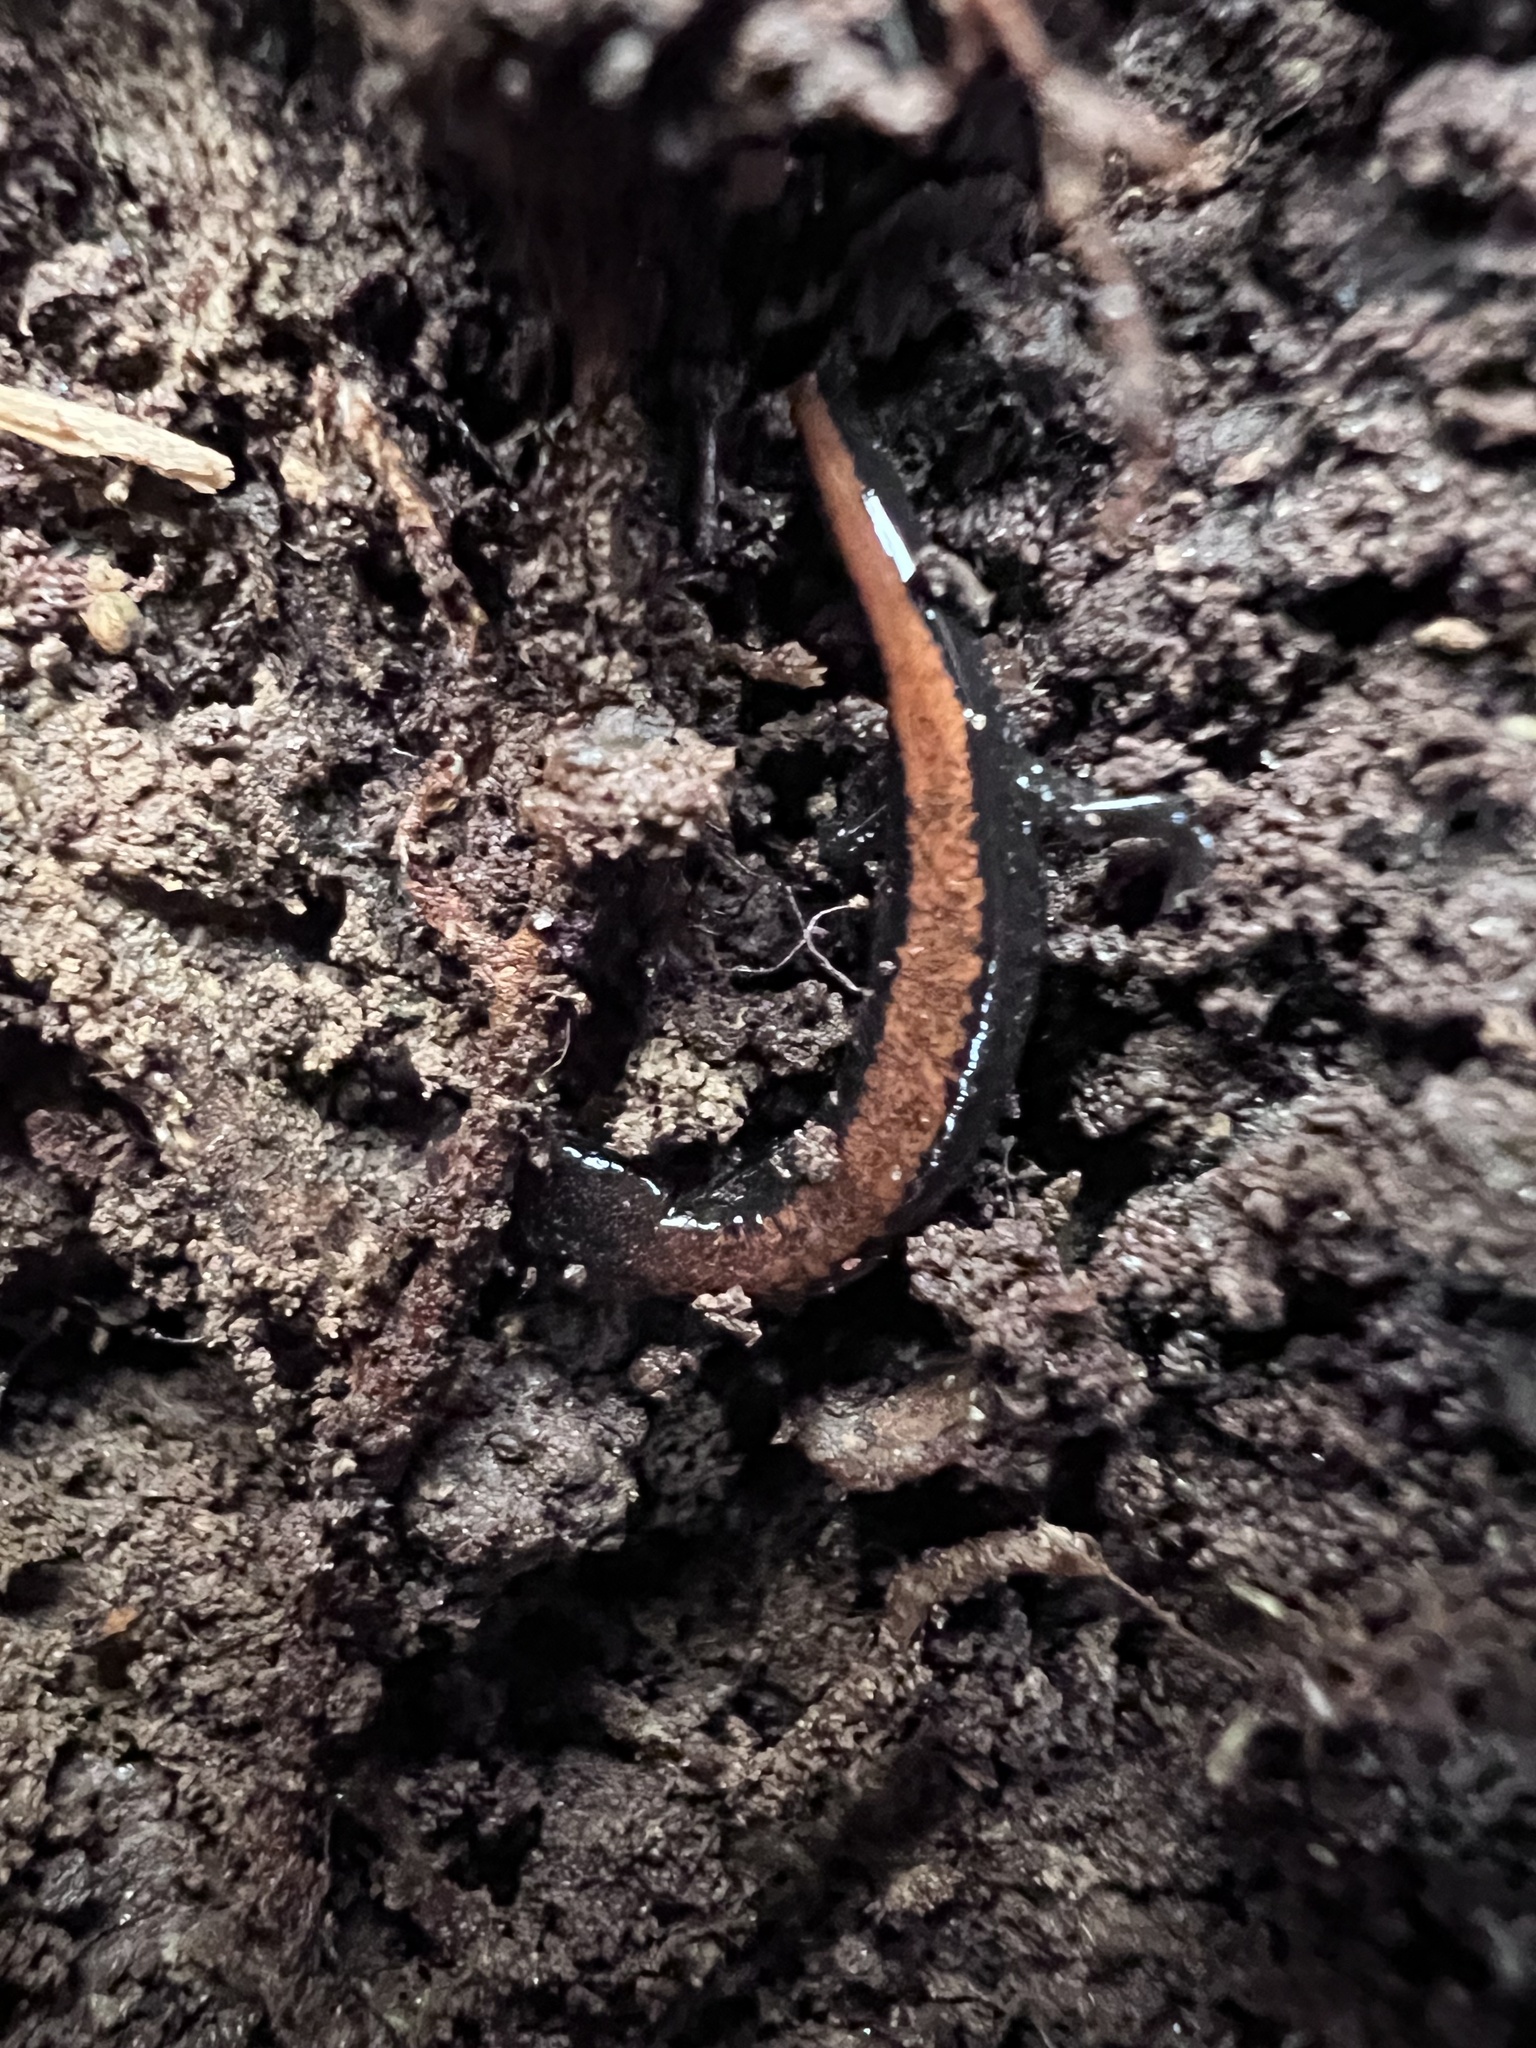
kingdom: Animalia
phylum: Chordata
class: Amphibia
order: Caudata
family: Plethodontidae
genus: Plethodon
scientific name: Plethodon cinereus
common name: Redback salamander
